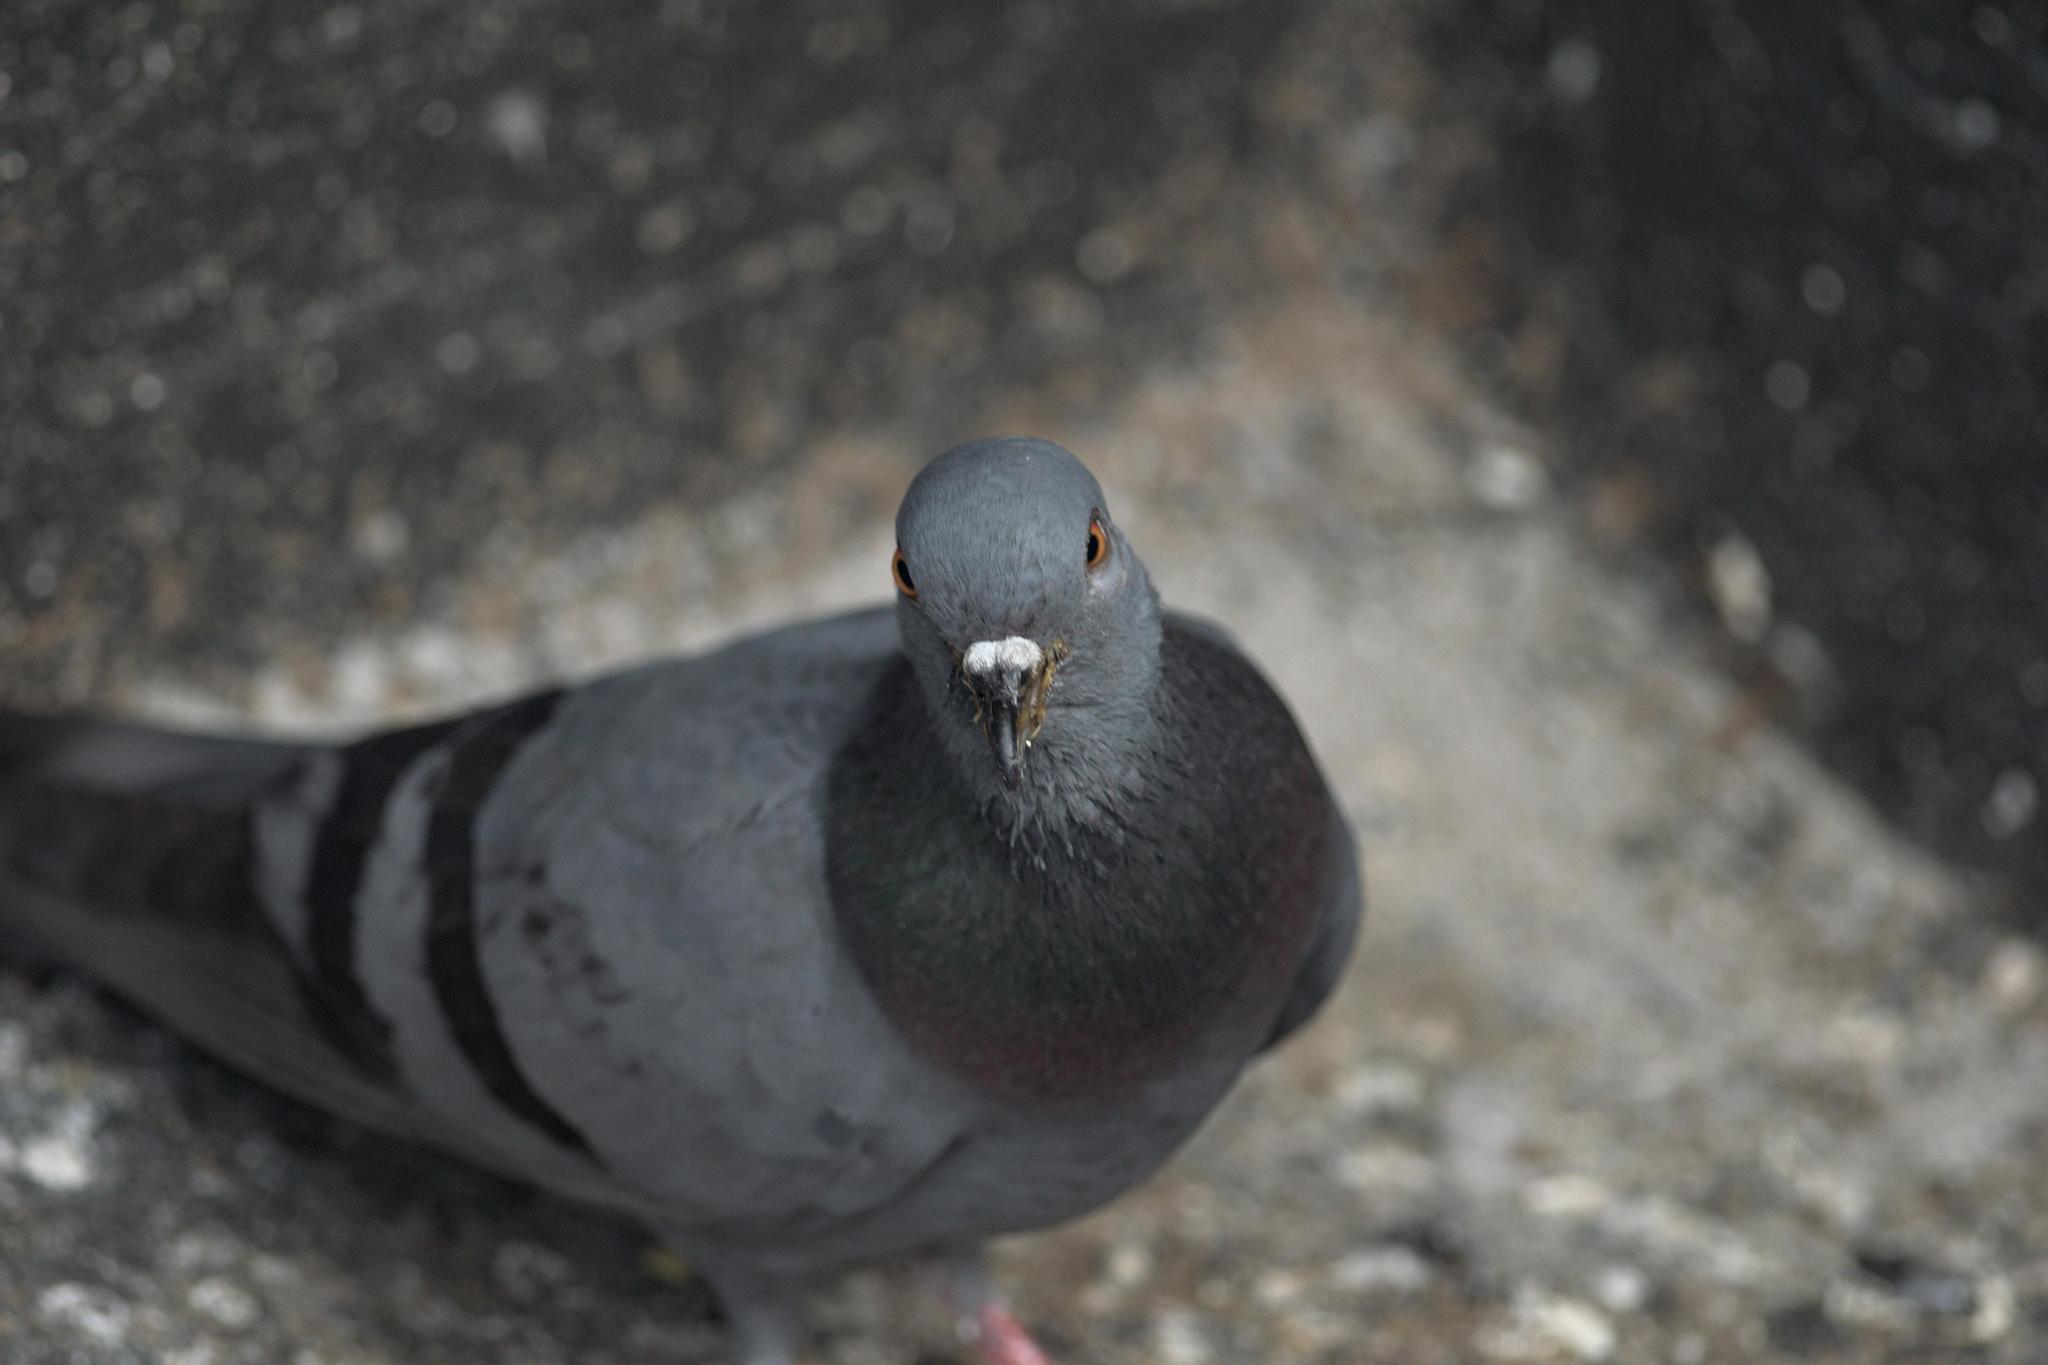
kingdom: Animalia
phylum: Chordata
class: Aves
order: Columbiformes
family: Columbidae
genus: Columba
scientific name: Columba livia
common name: Rock pigeon
